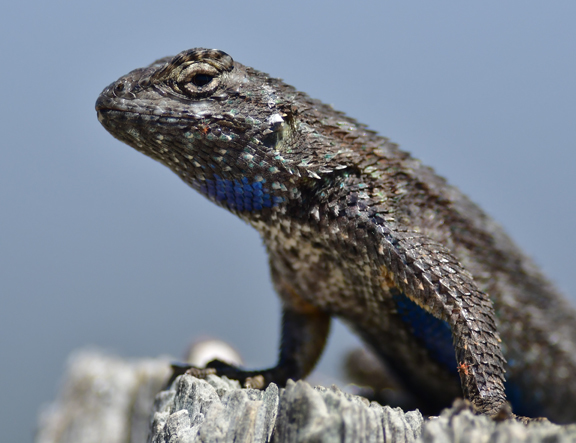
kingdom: Animalia
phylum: Chordata
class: Squamata
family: Phrynosomatidae
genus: Sceloporus
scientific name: Sceloporus occidentalis
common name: Western fence lizard
